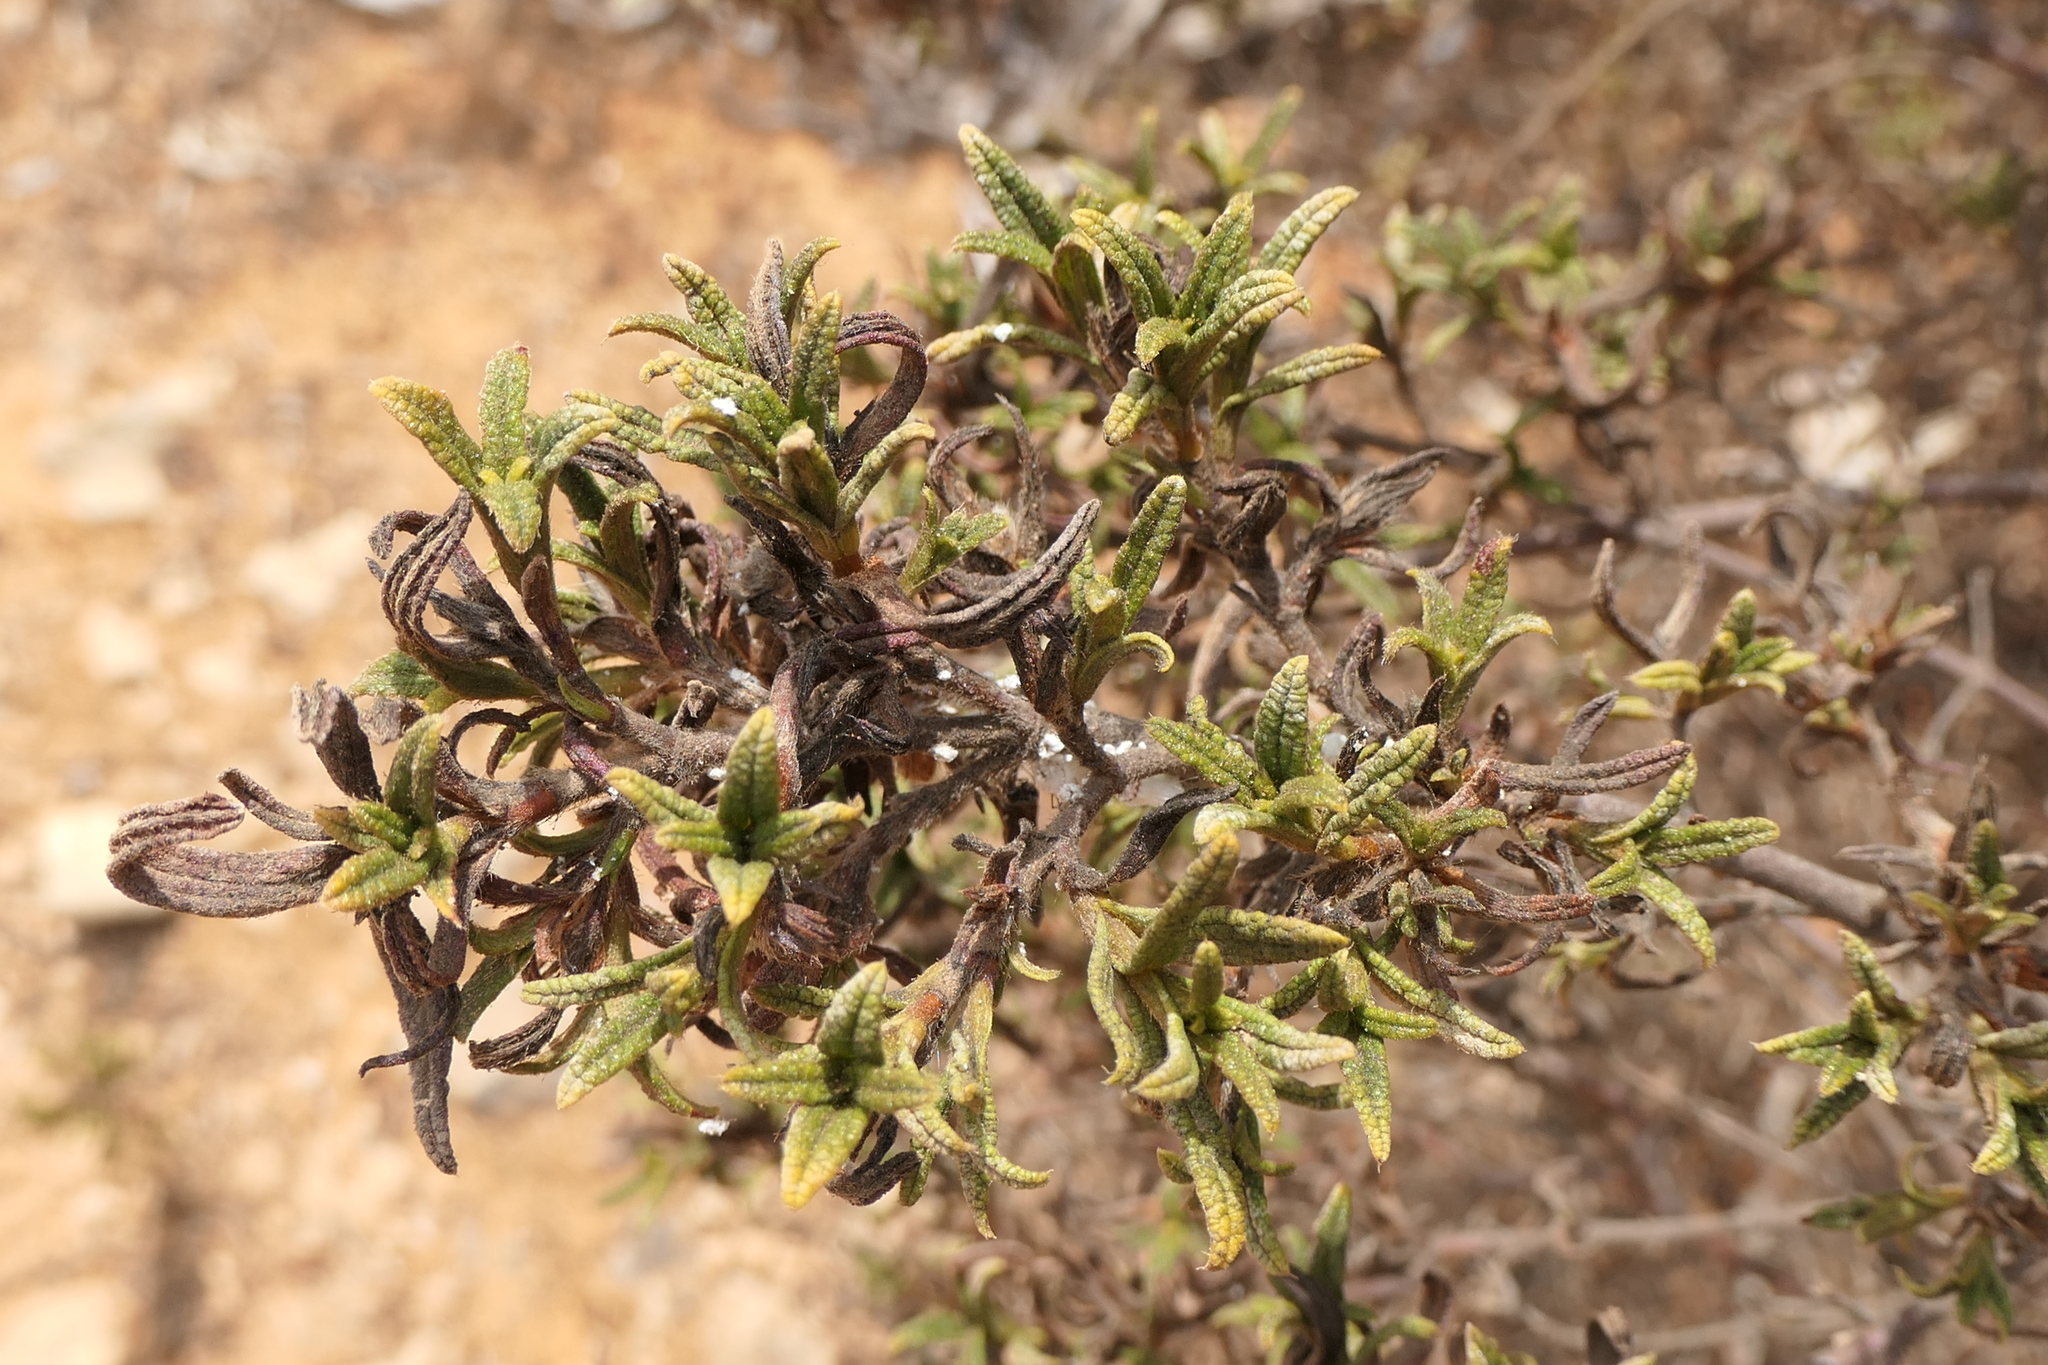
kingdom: Plantae
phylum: Tracheophyta
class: Magnoliopsida
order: Malvales
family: Cistaceae
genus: Cistus
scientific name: Cistus monspeliensis
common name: Montpelier cistus
